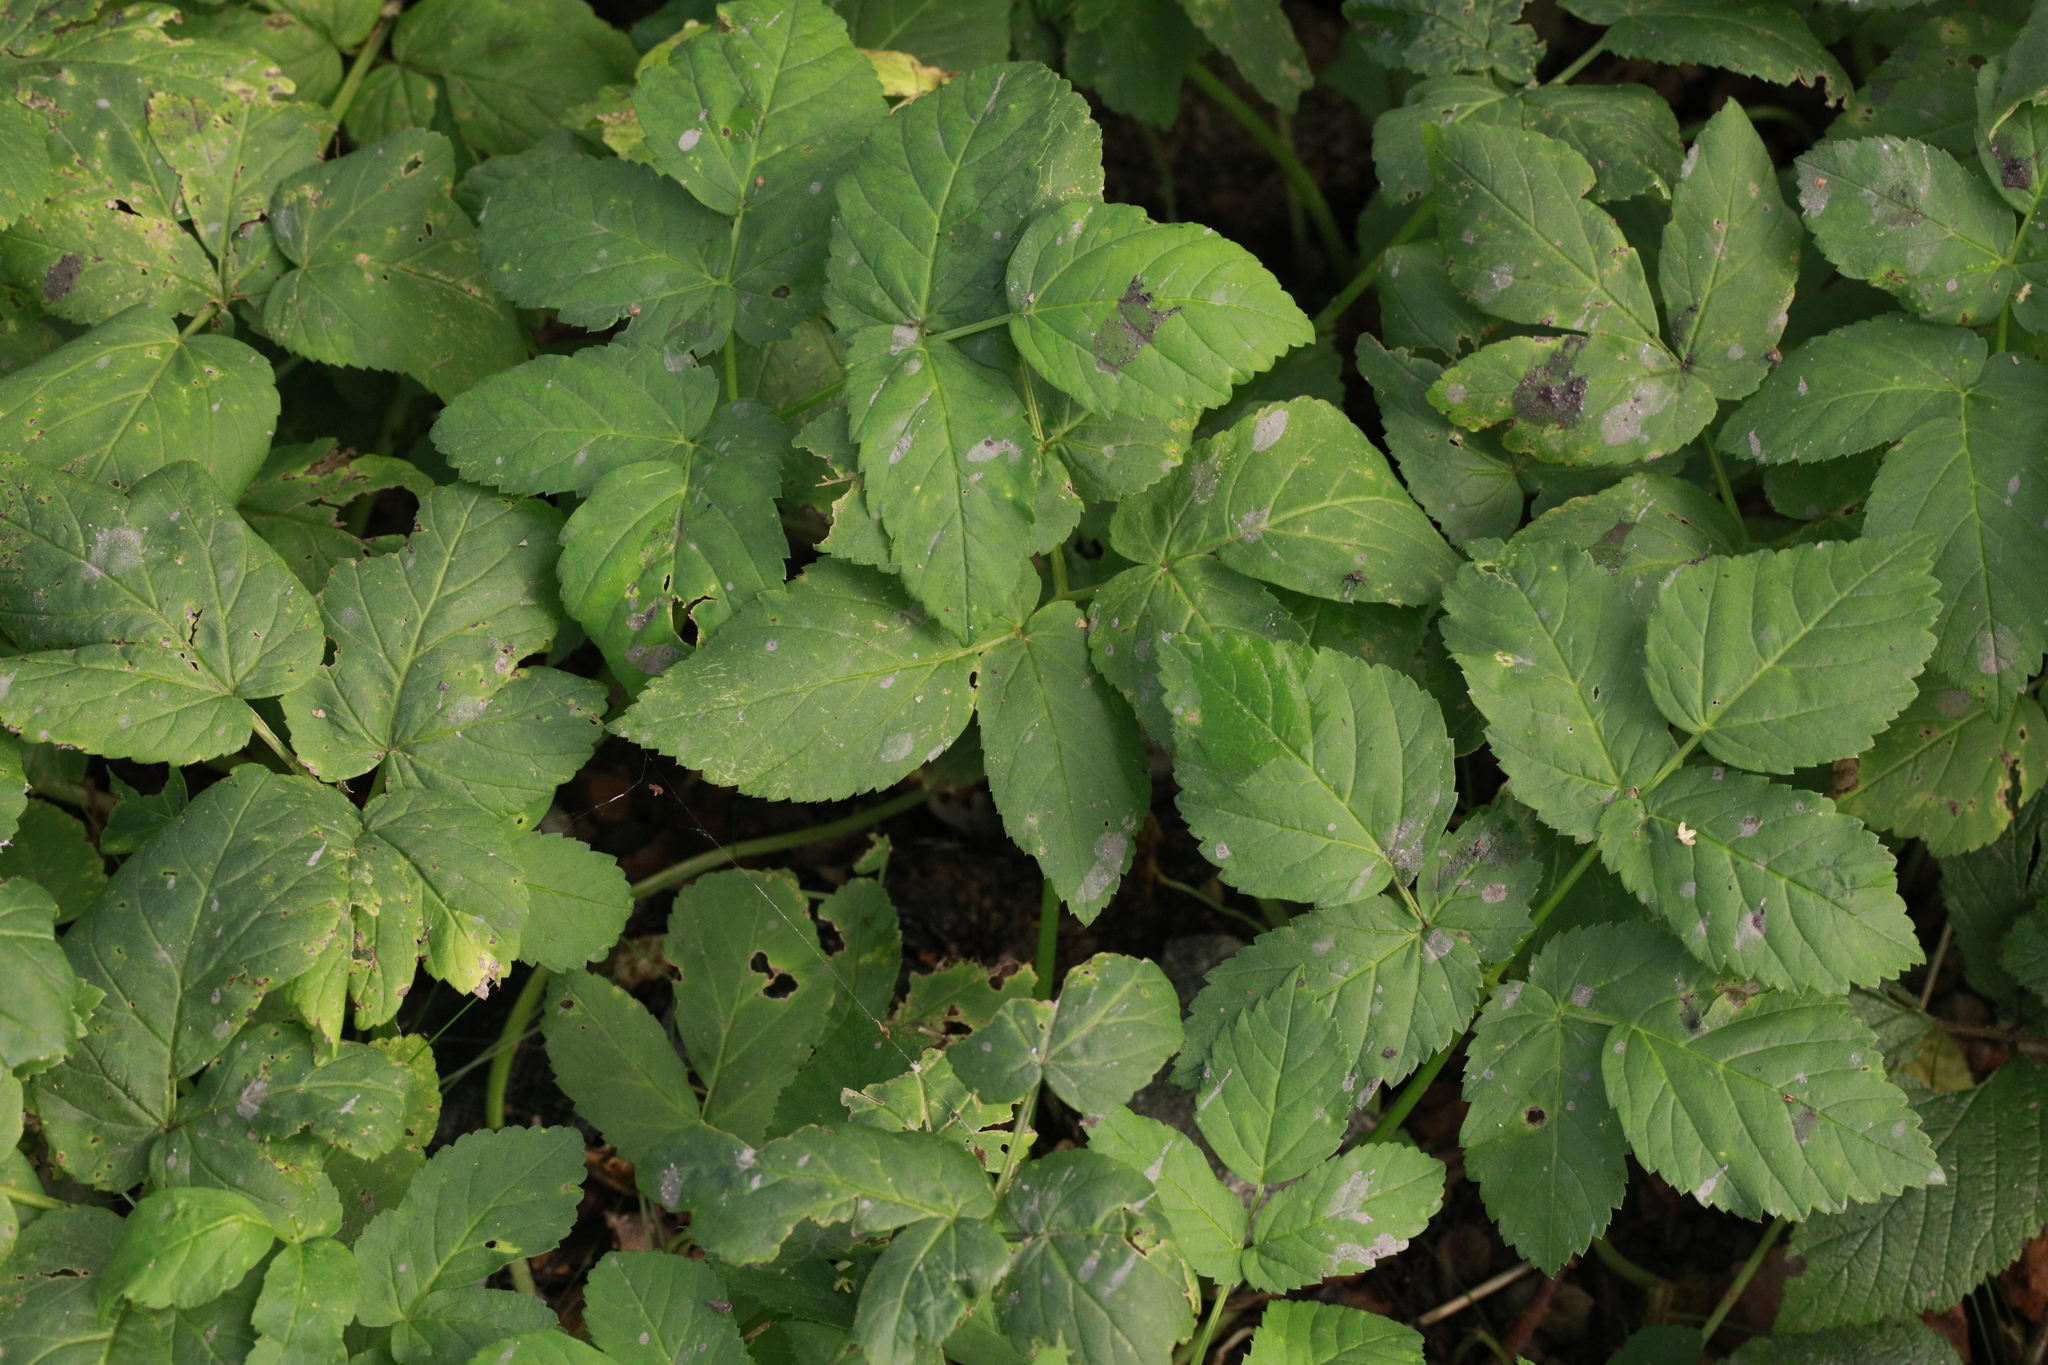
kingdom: Plantae
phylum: Tracheophyta
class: Magnoliopsida
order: Apiales
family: Apiaceae
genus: Aegopodium
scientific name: Aegopodium podagraria
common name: Ground-elder
